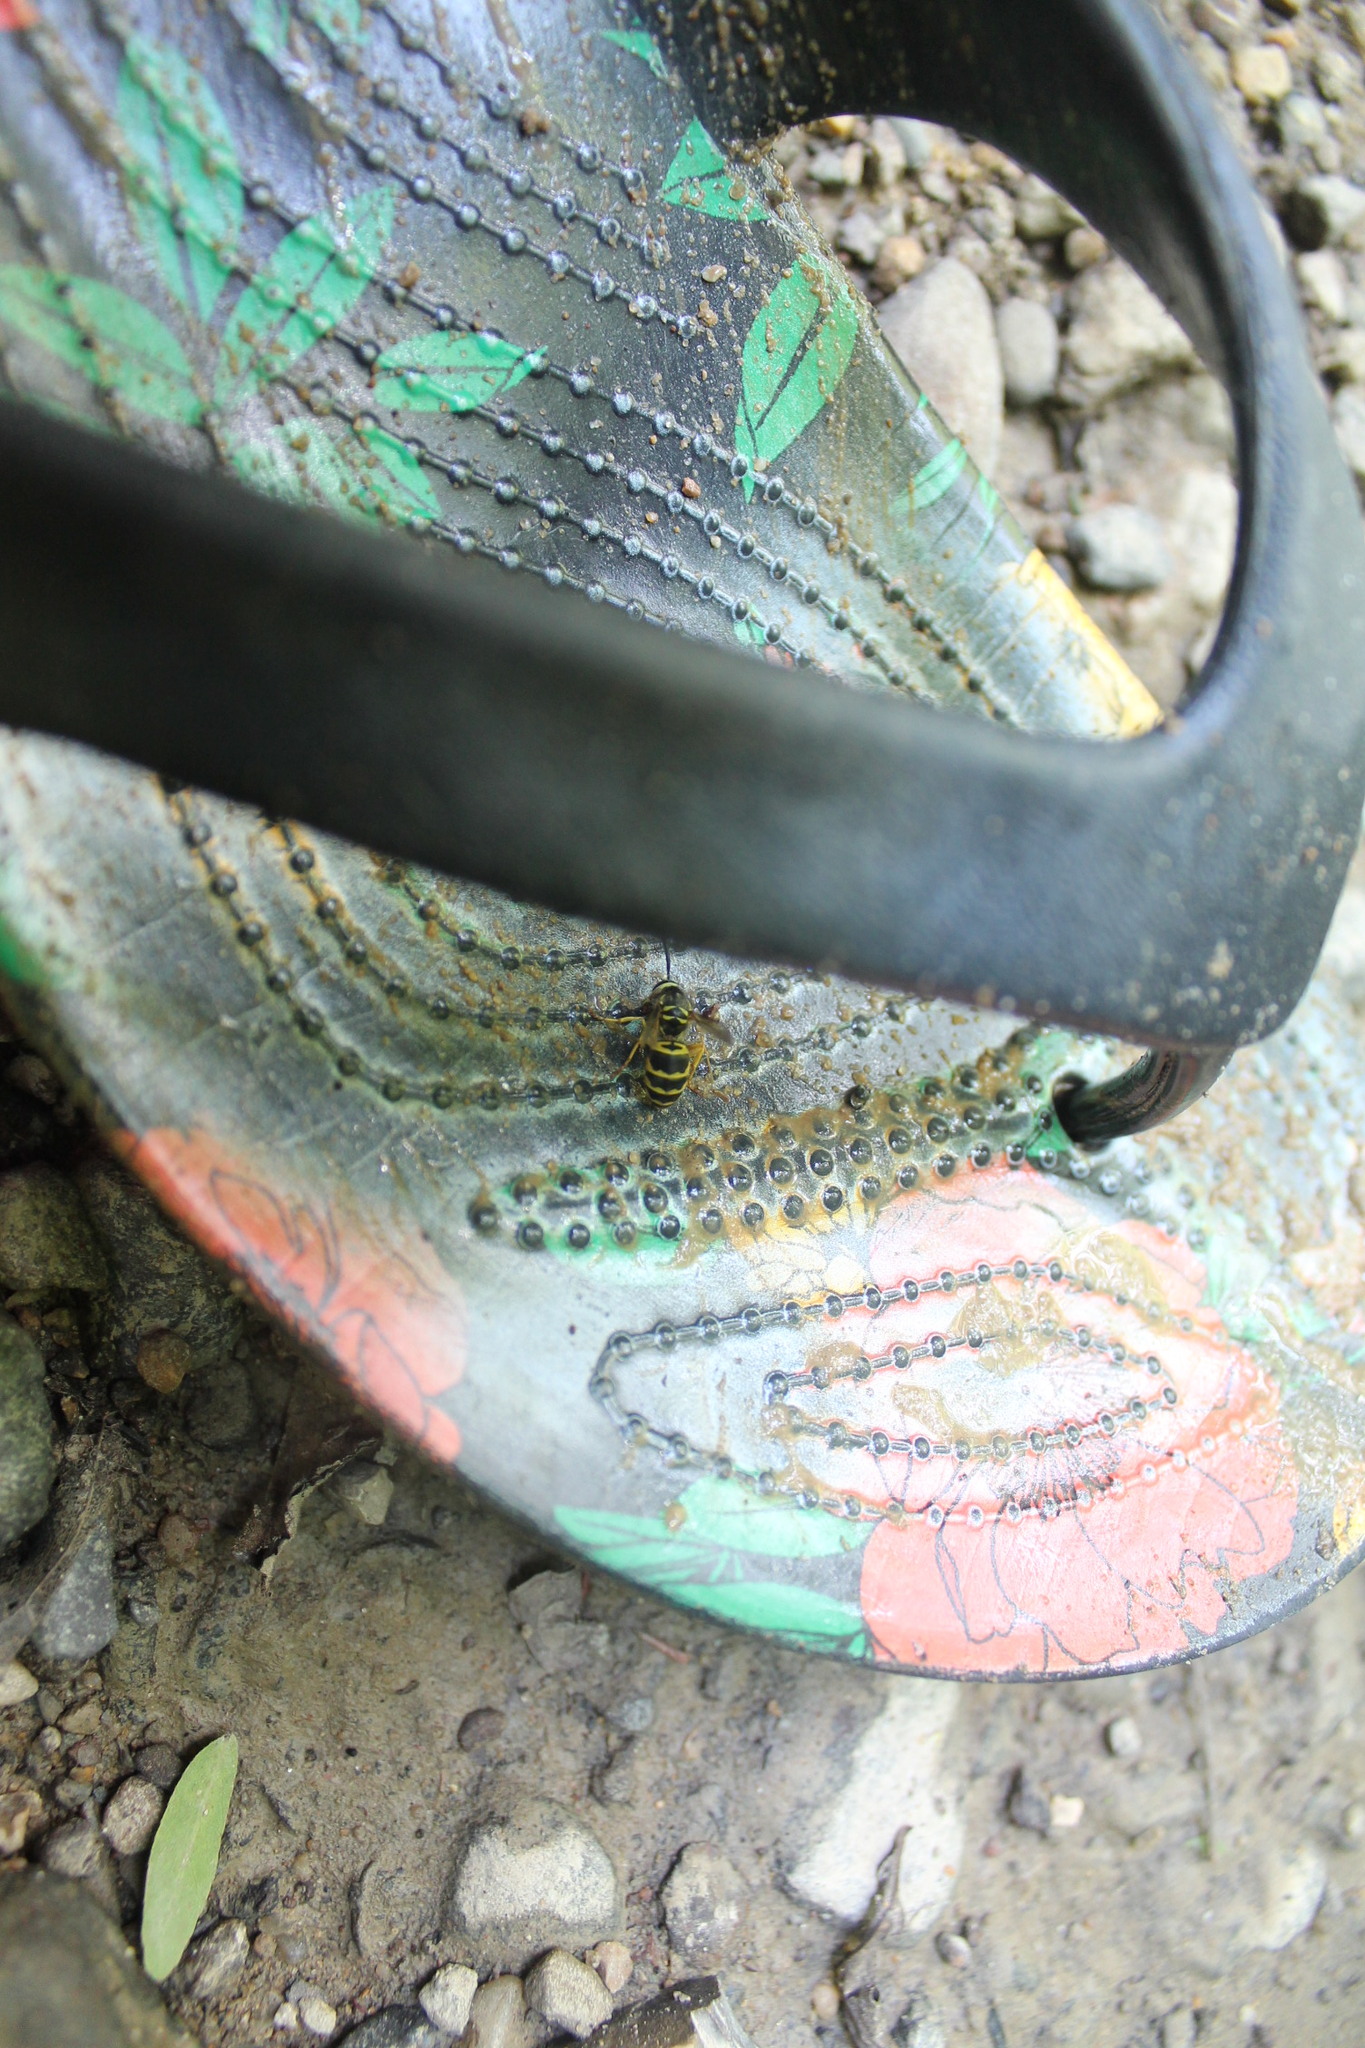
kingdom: Animalia
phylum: Arthropoda
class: Insecta
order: Hymenoptera
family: Vespidae
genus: Vespula
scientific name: Vespula maculifrons
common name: Eastern yellowjacket
